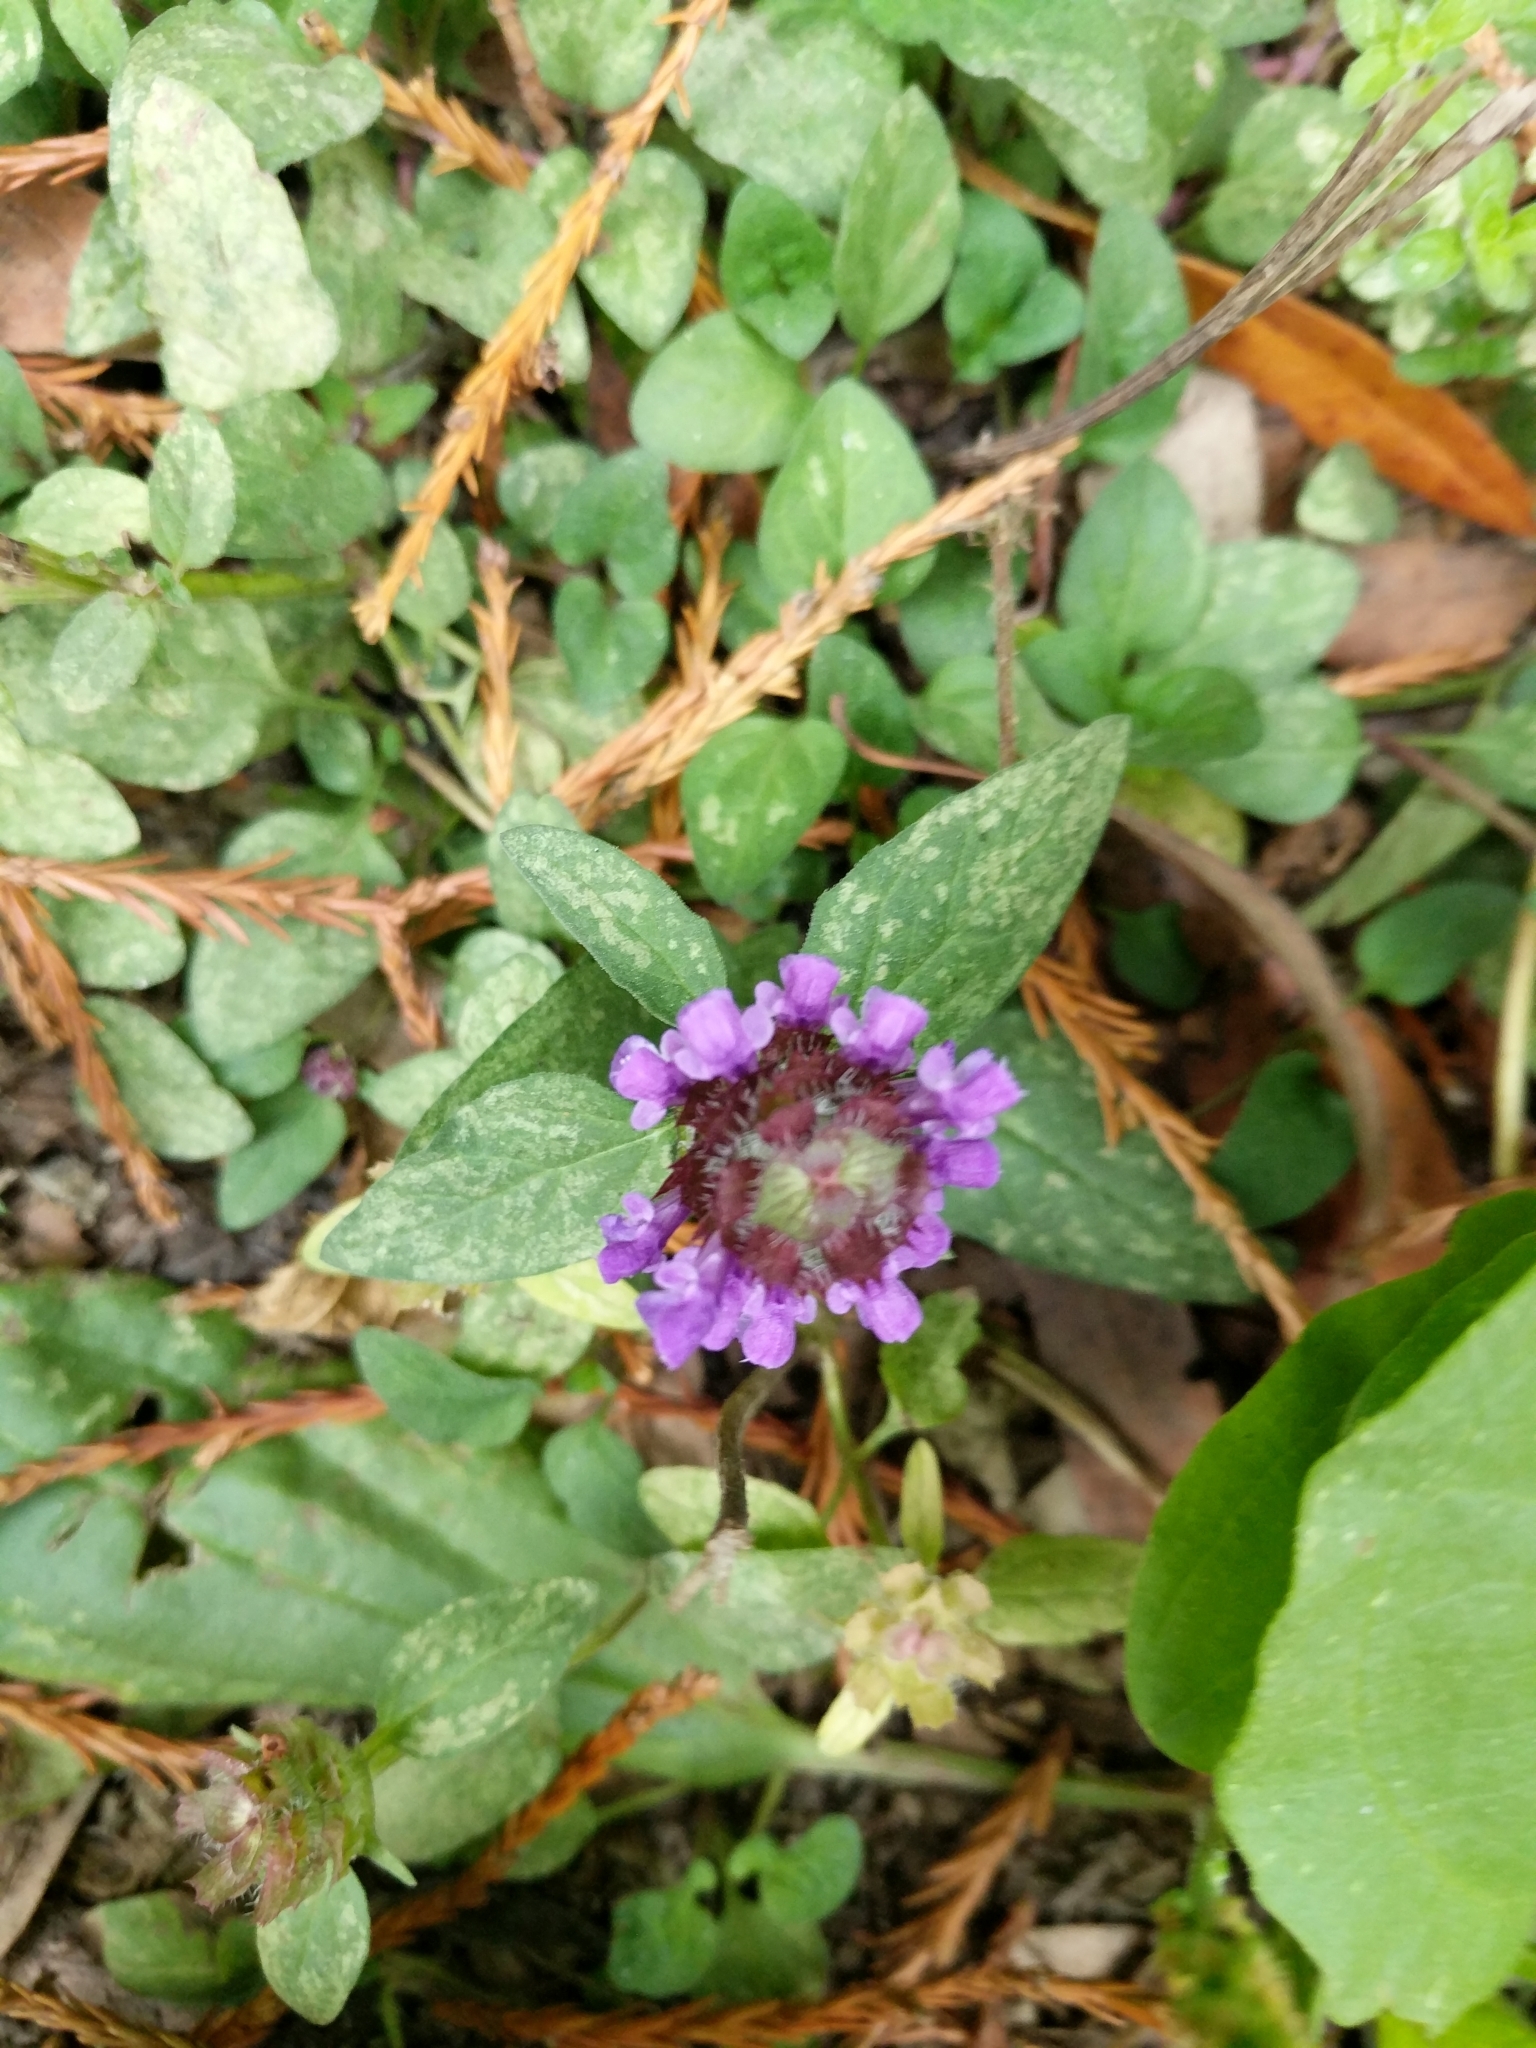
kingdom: Plantae
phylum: Tracheophyta
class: Magnoliopsida
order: Lamiales
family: Lamiaceae
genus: Prunella
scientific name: Prunella vulgaris
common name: Heal-all
